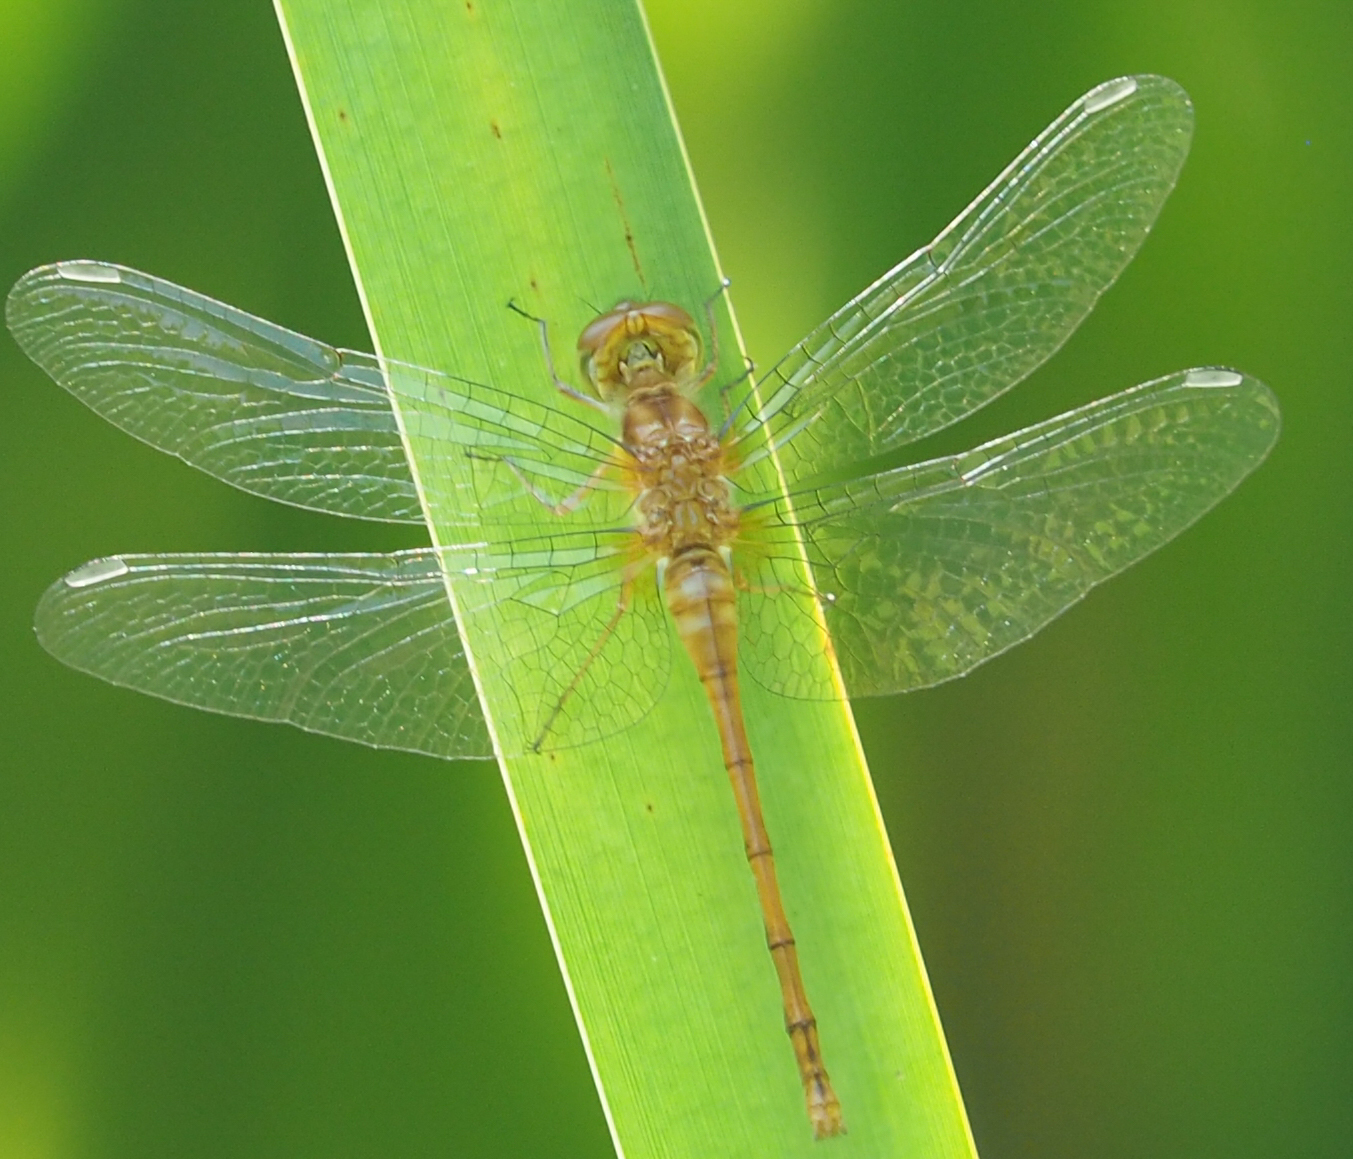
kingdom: Animalia
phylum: Arthropoda
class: Insecta
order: Odonata
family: Libellulidae
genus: Sympetrum
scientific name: Sympetrum vicinum
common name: Autumn meadowhawk
